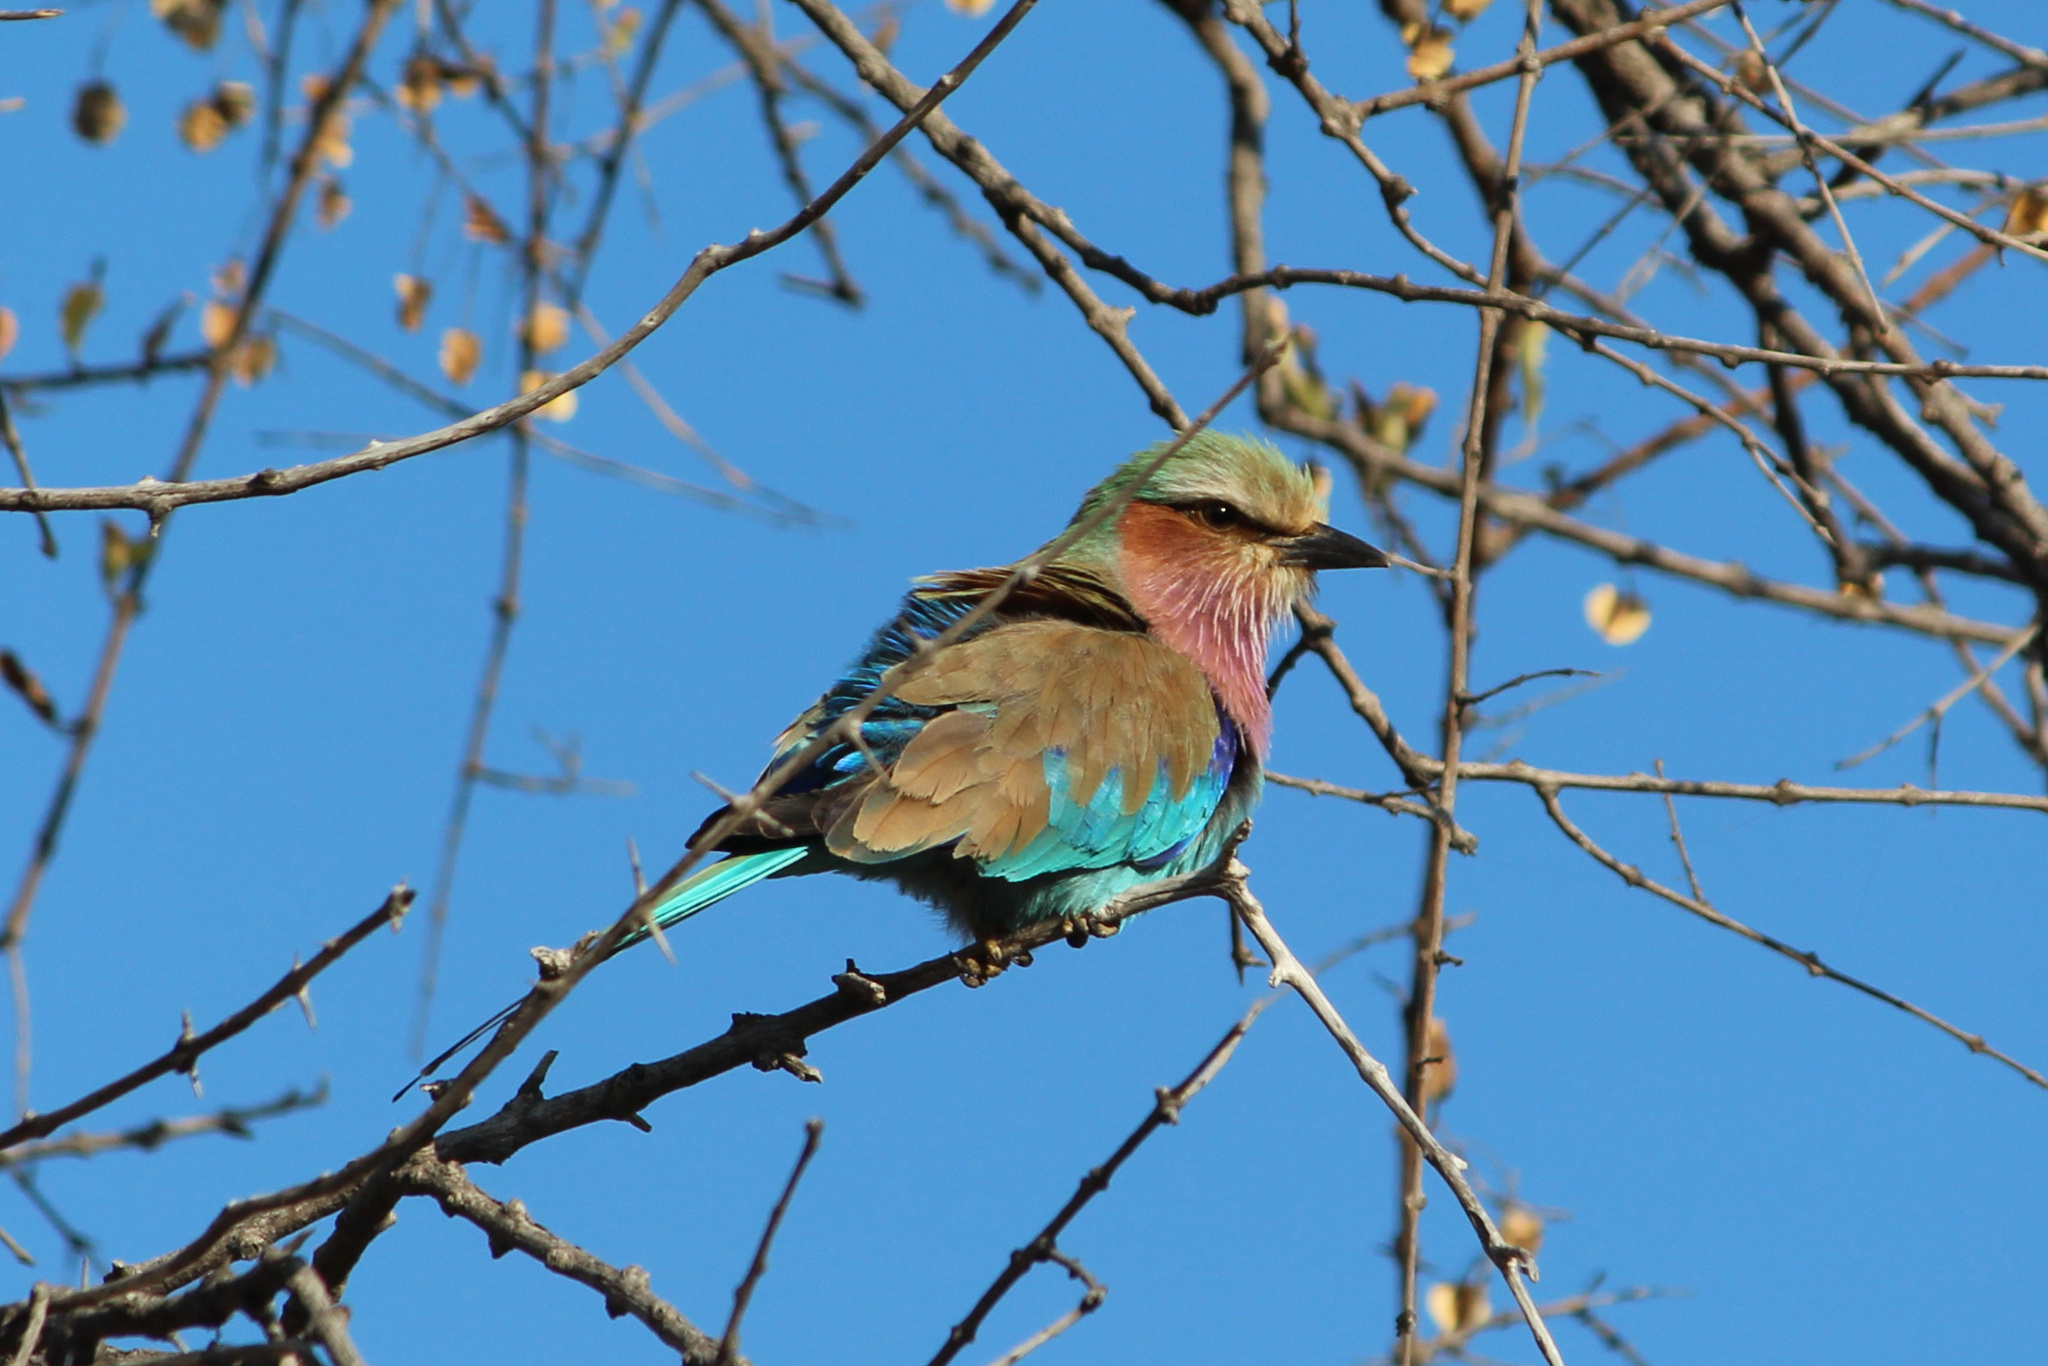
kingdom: Animalia
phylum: Chordata
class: Aves
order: Coraciiformes
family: Coraciidae
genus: Coracias
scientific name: Coracias caudatus
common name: Lilac-breasted roller
